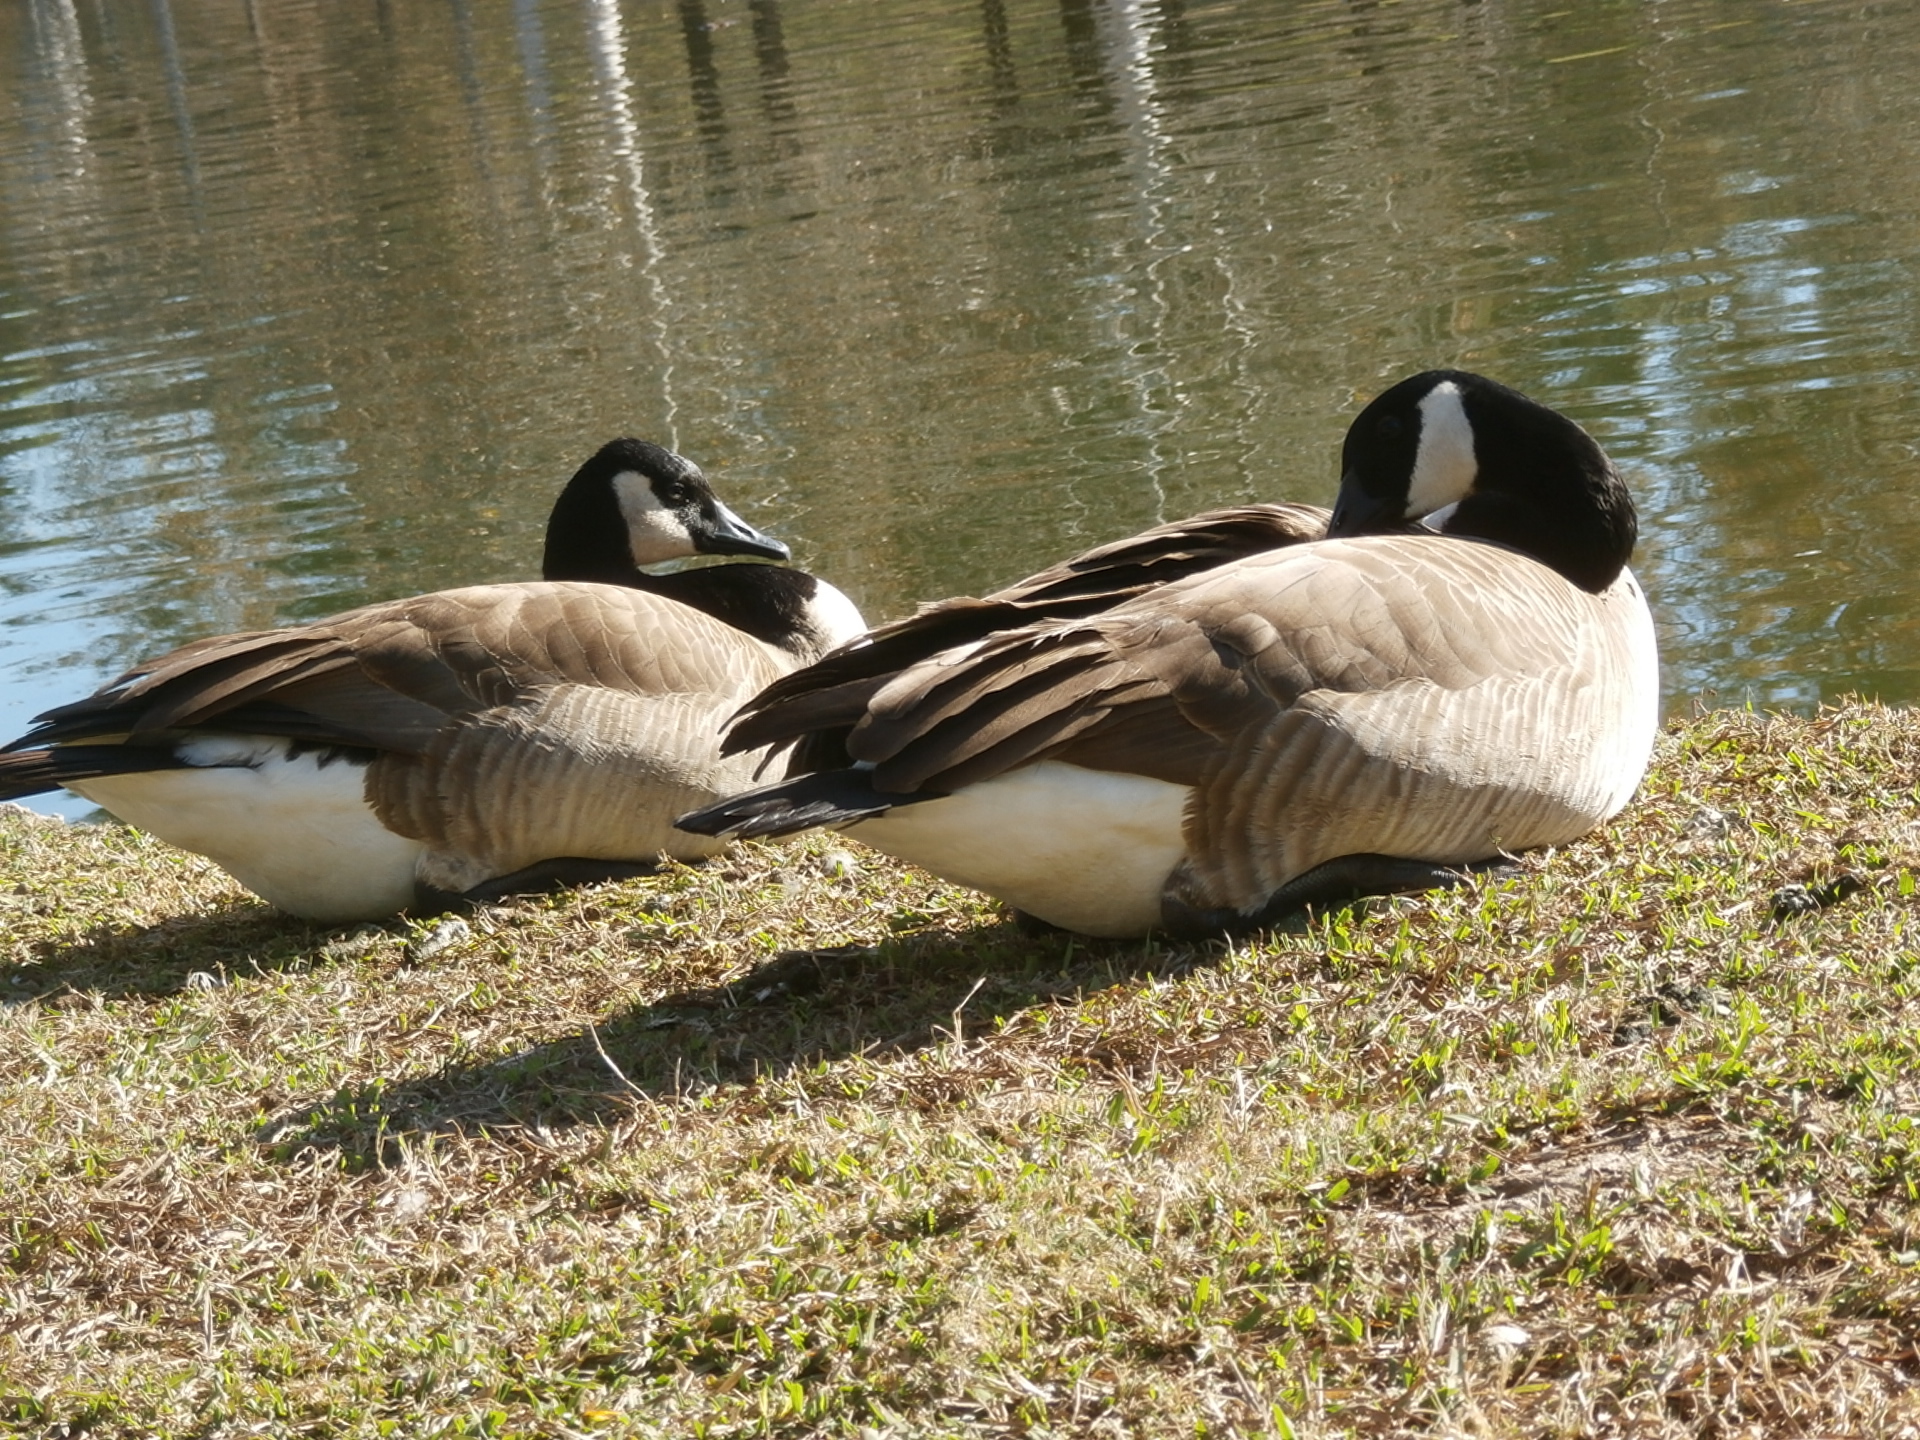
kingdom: Animalia
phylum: Chordata
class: Aves
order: Anseriformes
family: Anatidae
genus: Branta
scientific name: Branta canadensis
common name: Canada goose
